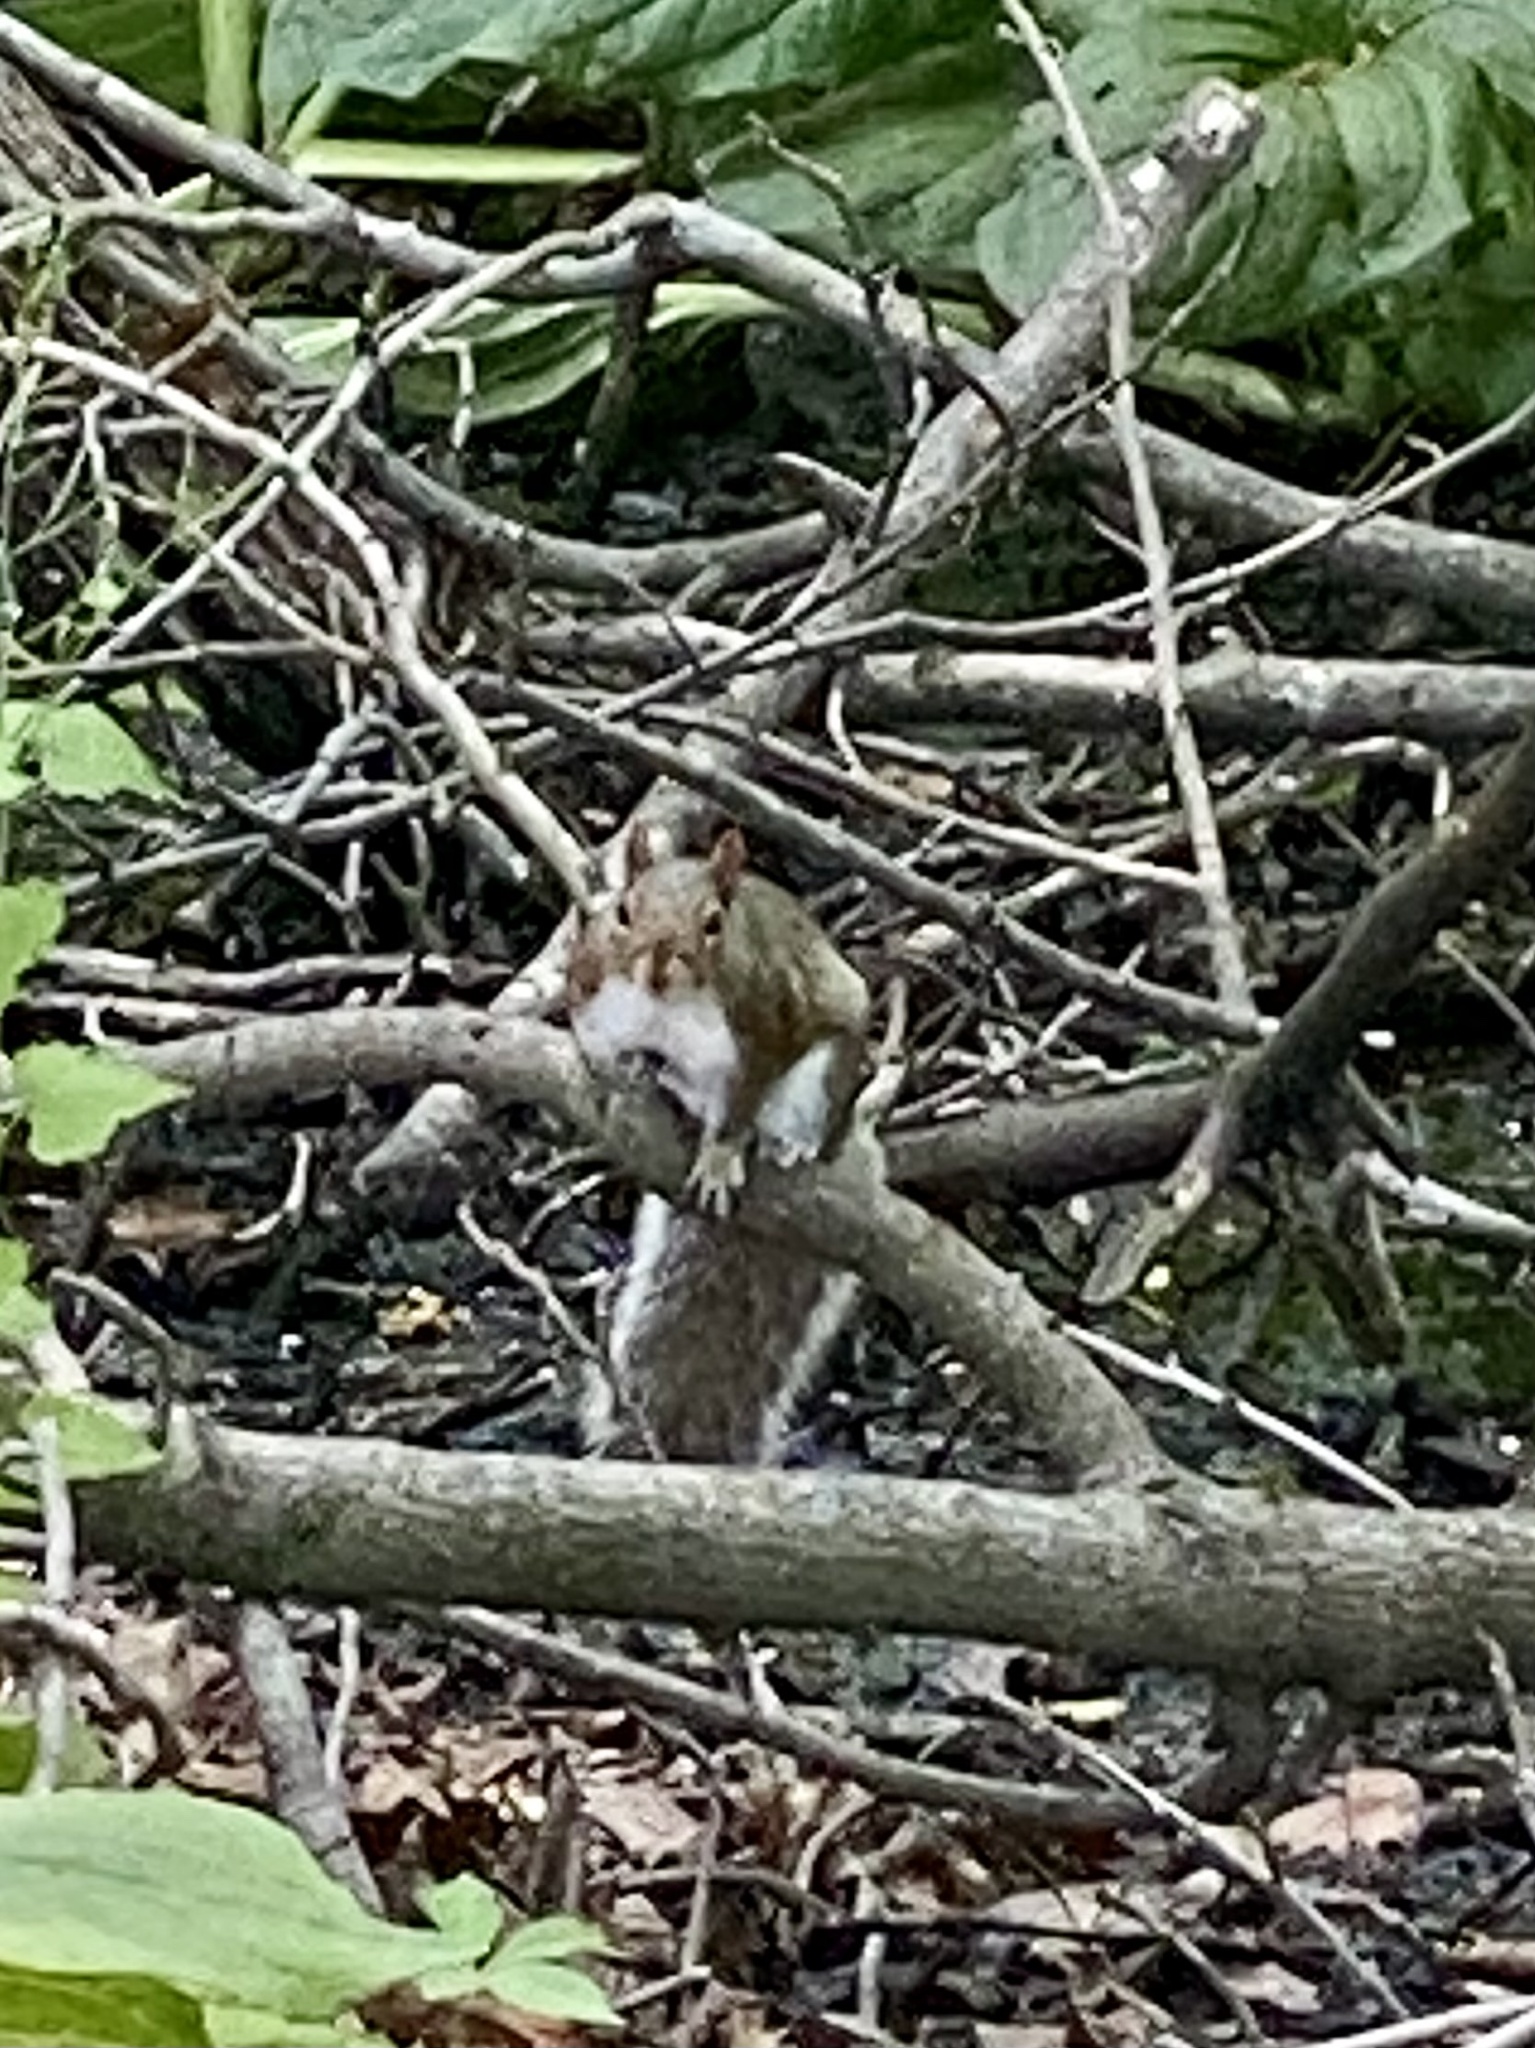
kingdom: Animalia
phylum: Chordata
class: Mammalia
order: Rodentia
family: Sciuridae
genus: Sciurus
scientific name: Sciurus carolinensis
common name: Eastern gray squirrel
